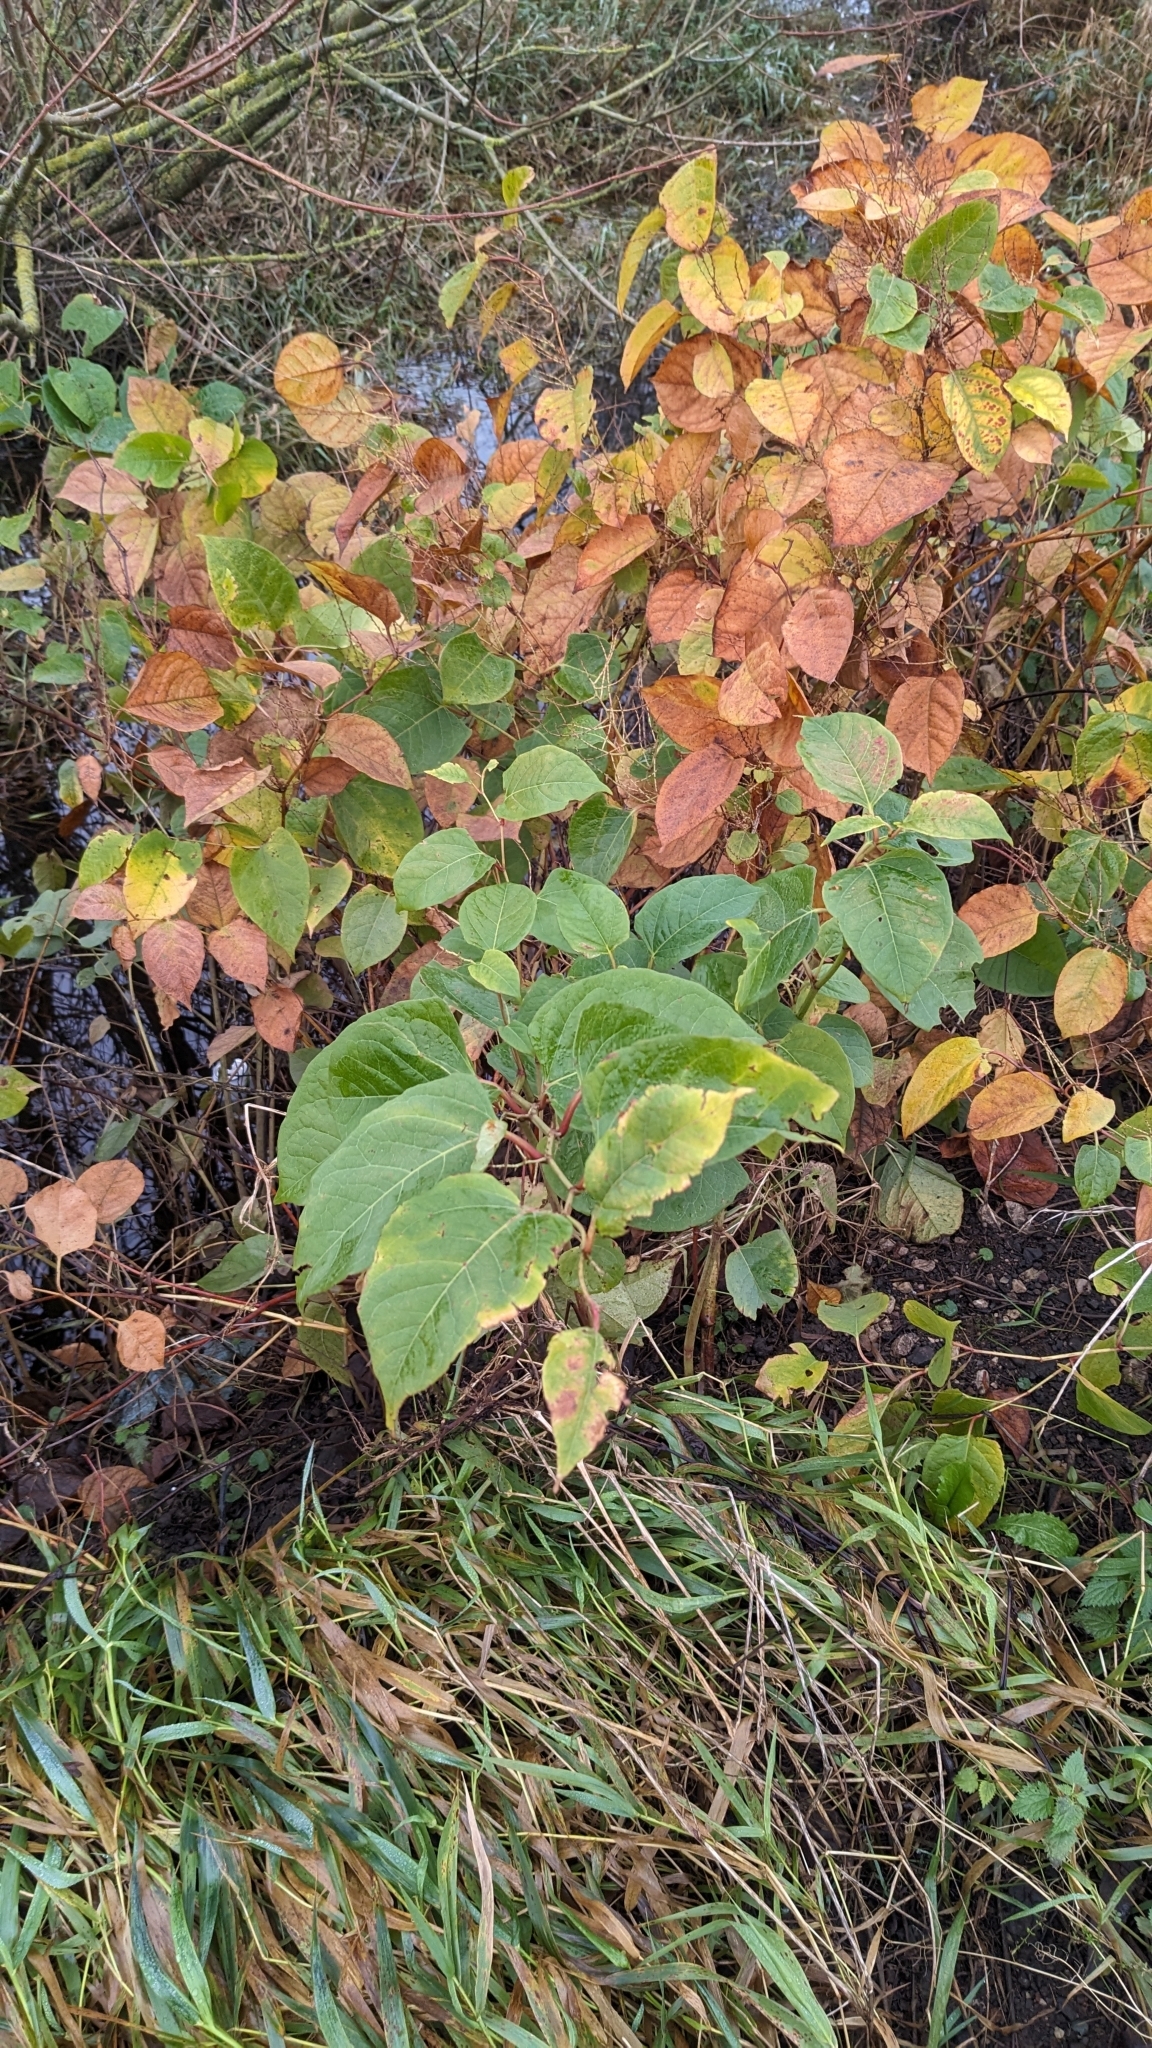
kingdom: Plantae
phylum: Tracheophyta
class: Magnoliopsida
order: Caryophyllales
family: Polygonaceae
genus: Reynoutria
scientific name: Reynoutria japonica
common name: Japanese knotweed
